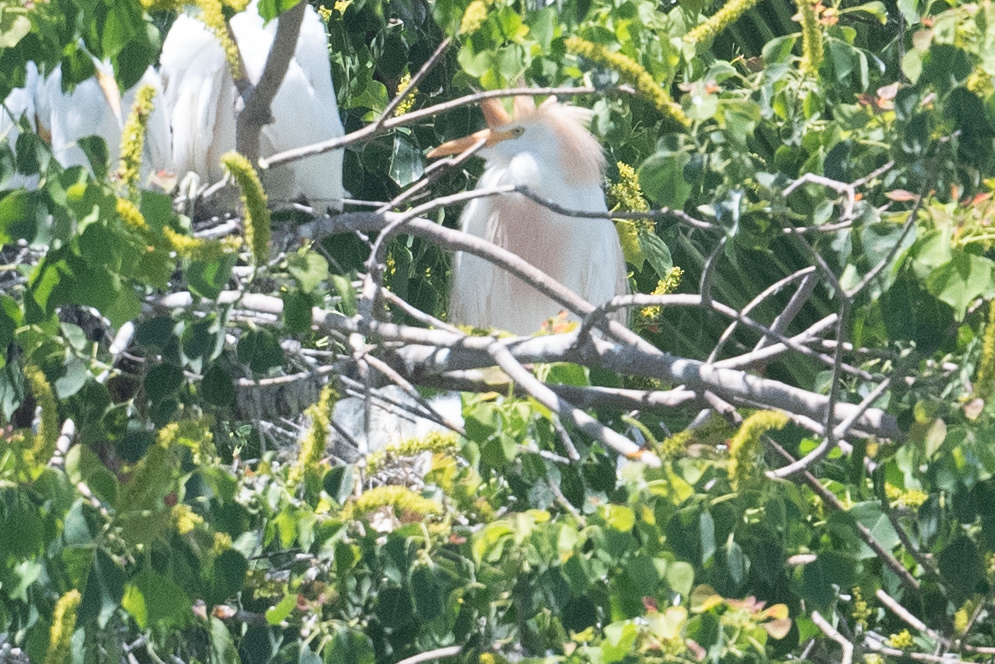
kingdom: Animalia
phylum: Chordata
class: Aves
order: Pelecaniformes
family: Ardeidae
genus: Bubulcus
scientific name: Bubulcus ibis
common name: Cattle egret
